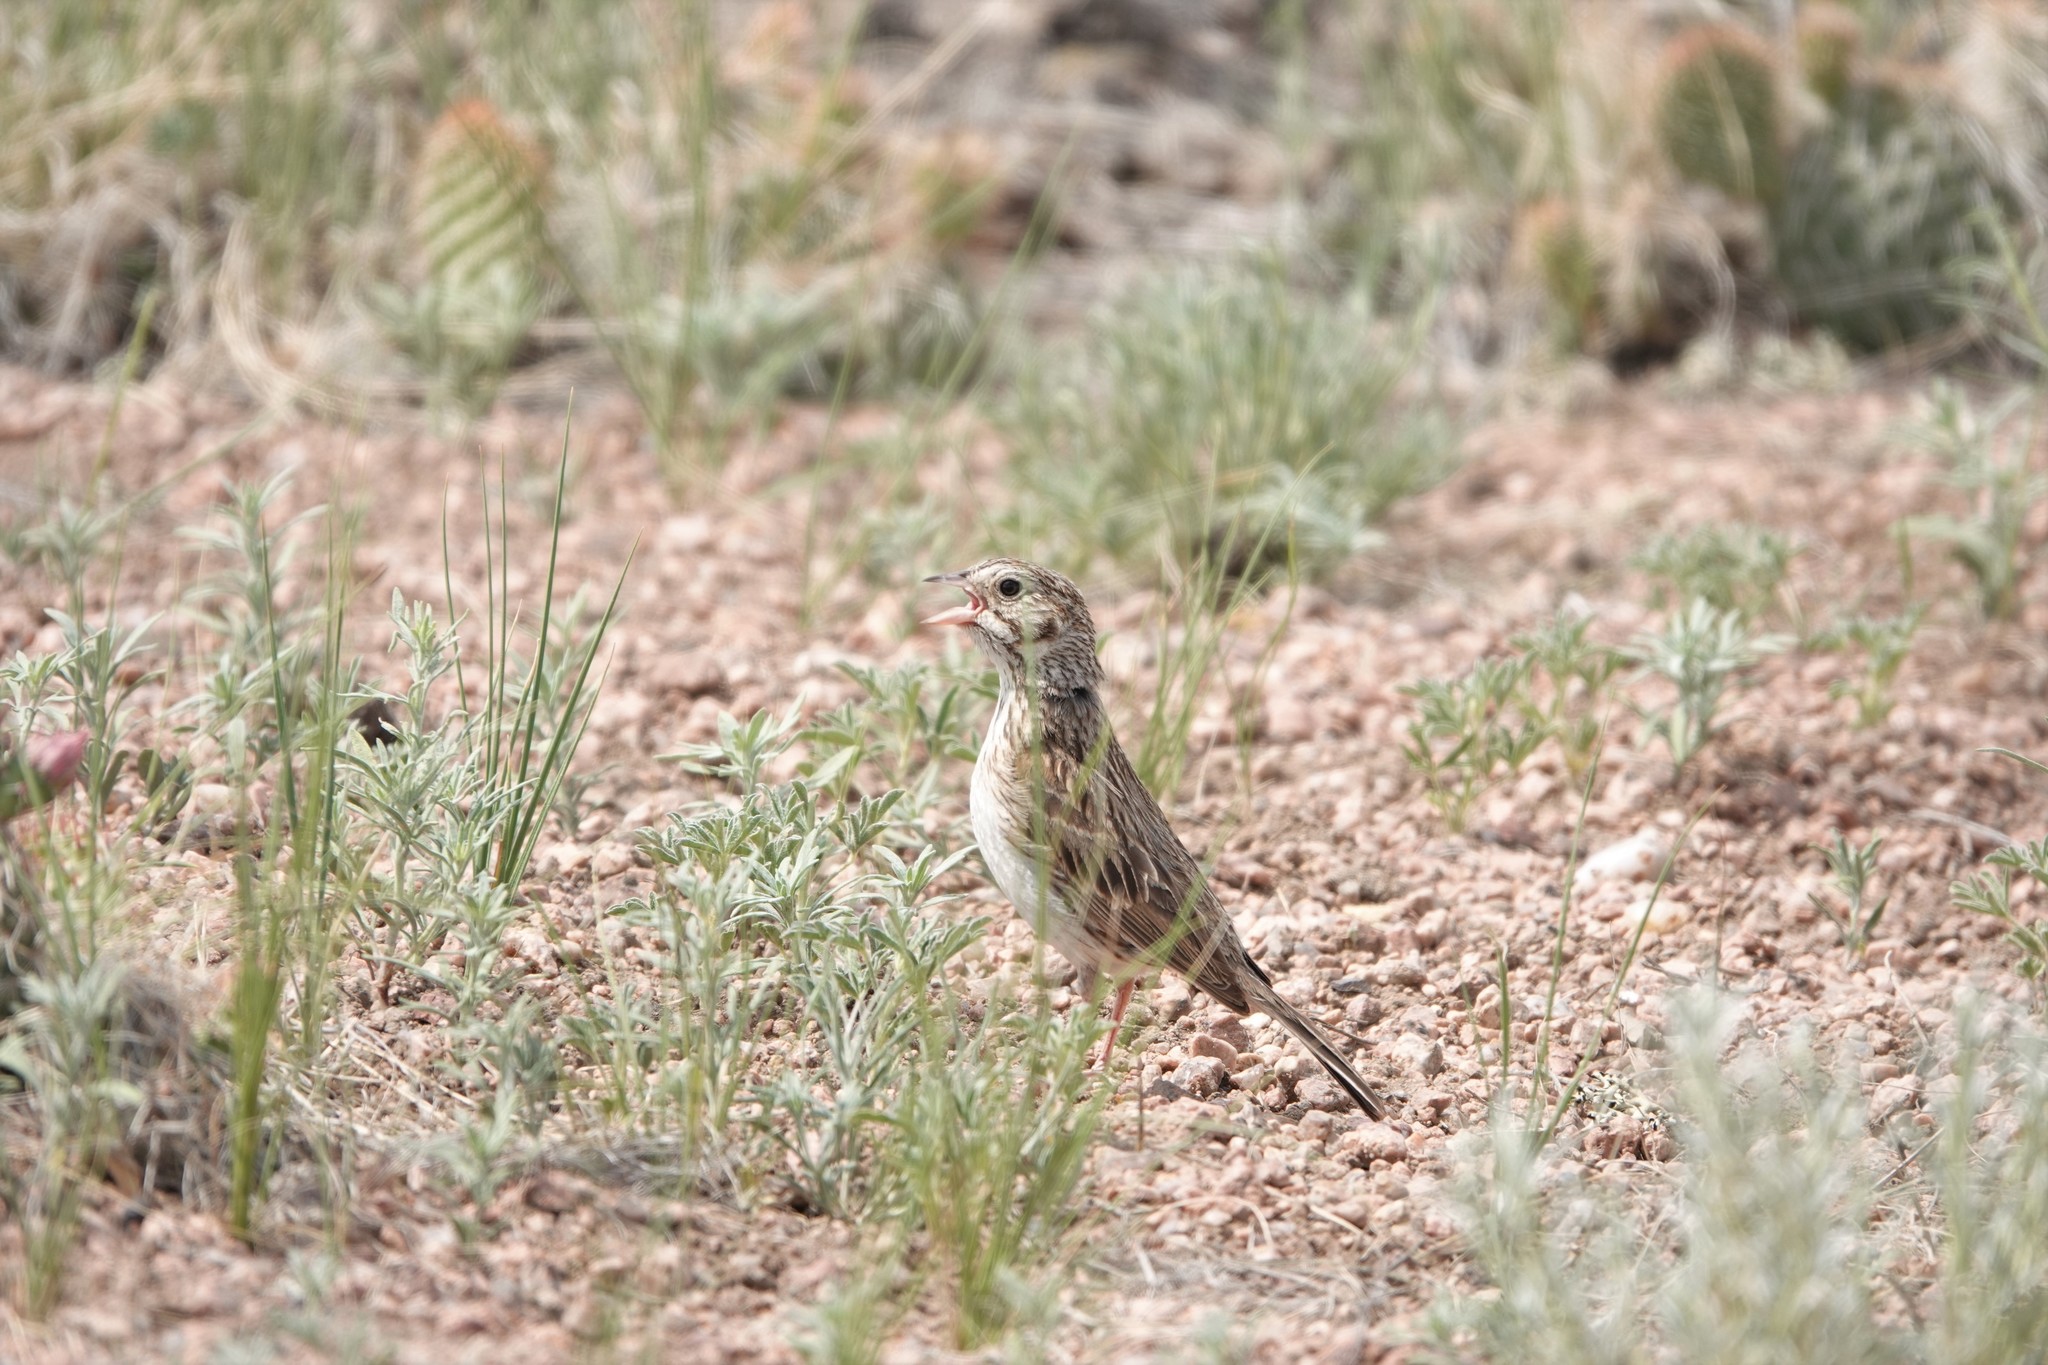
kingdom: Animalia
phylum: Chordata
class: Aves
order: Passeriformes
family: Passerellidae
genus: Pooecetes
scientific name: Pooecetes gramineus
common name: Vesper sparrow
